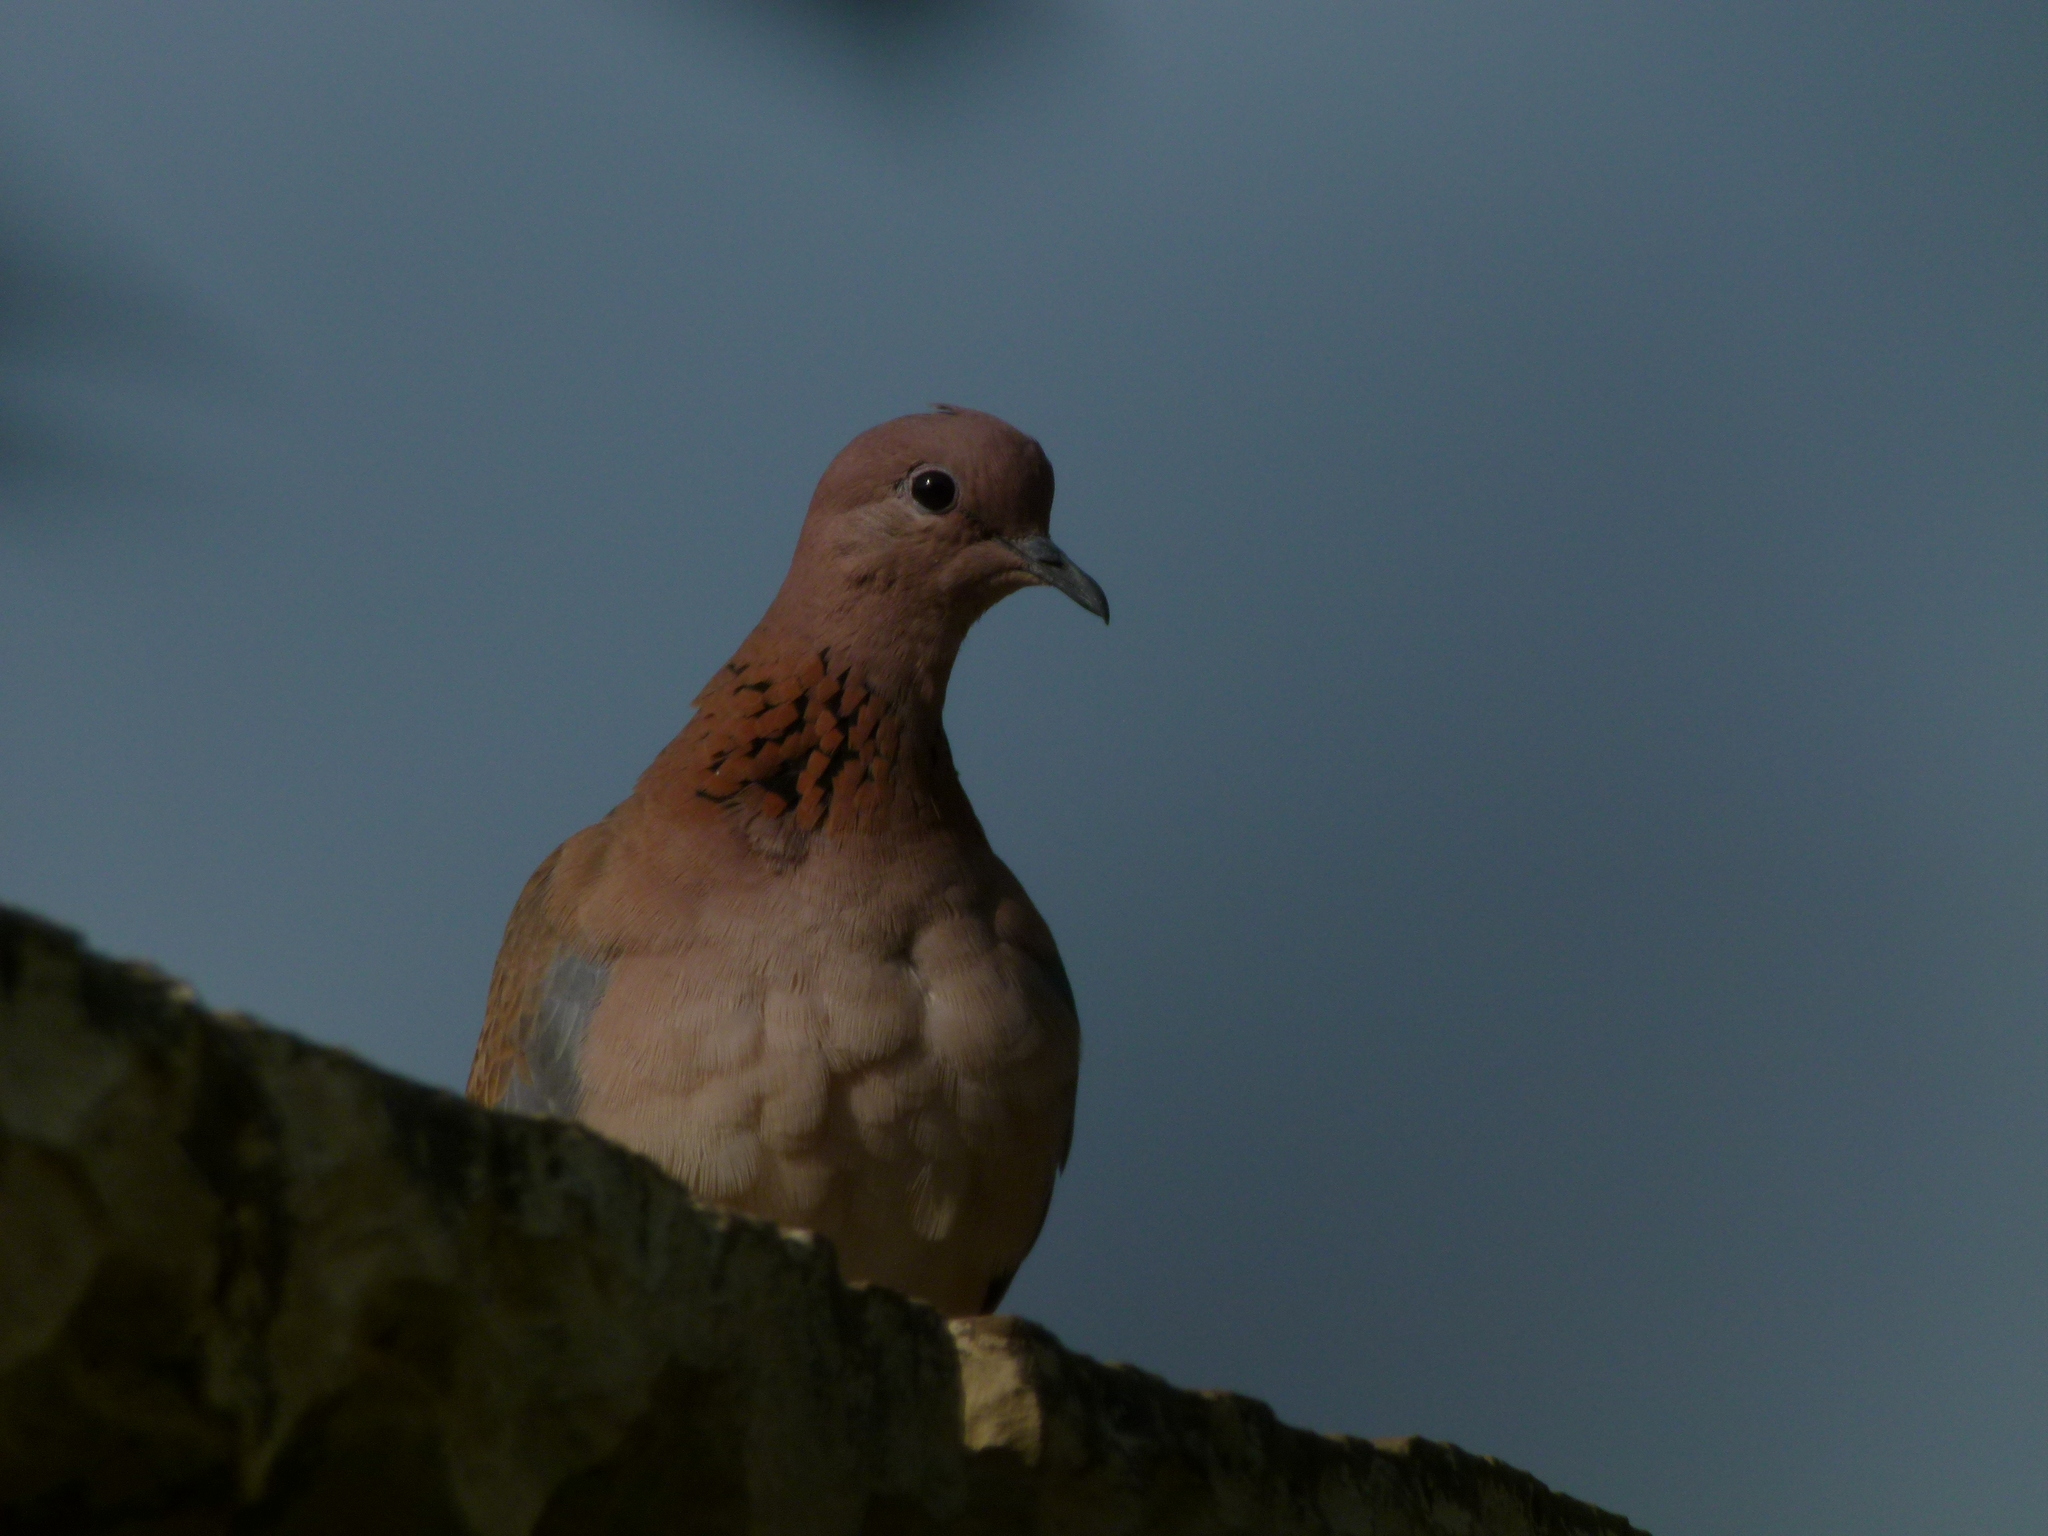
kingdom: Animalia
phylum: Chordata
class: Aves
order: Columbiformes
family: Columbidae
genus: Spilopelia
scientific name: Spilopelia senegalensis
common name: Laughing dove
